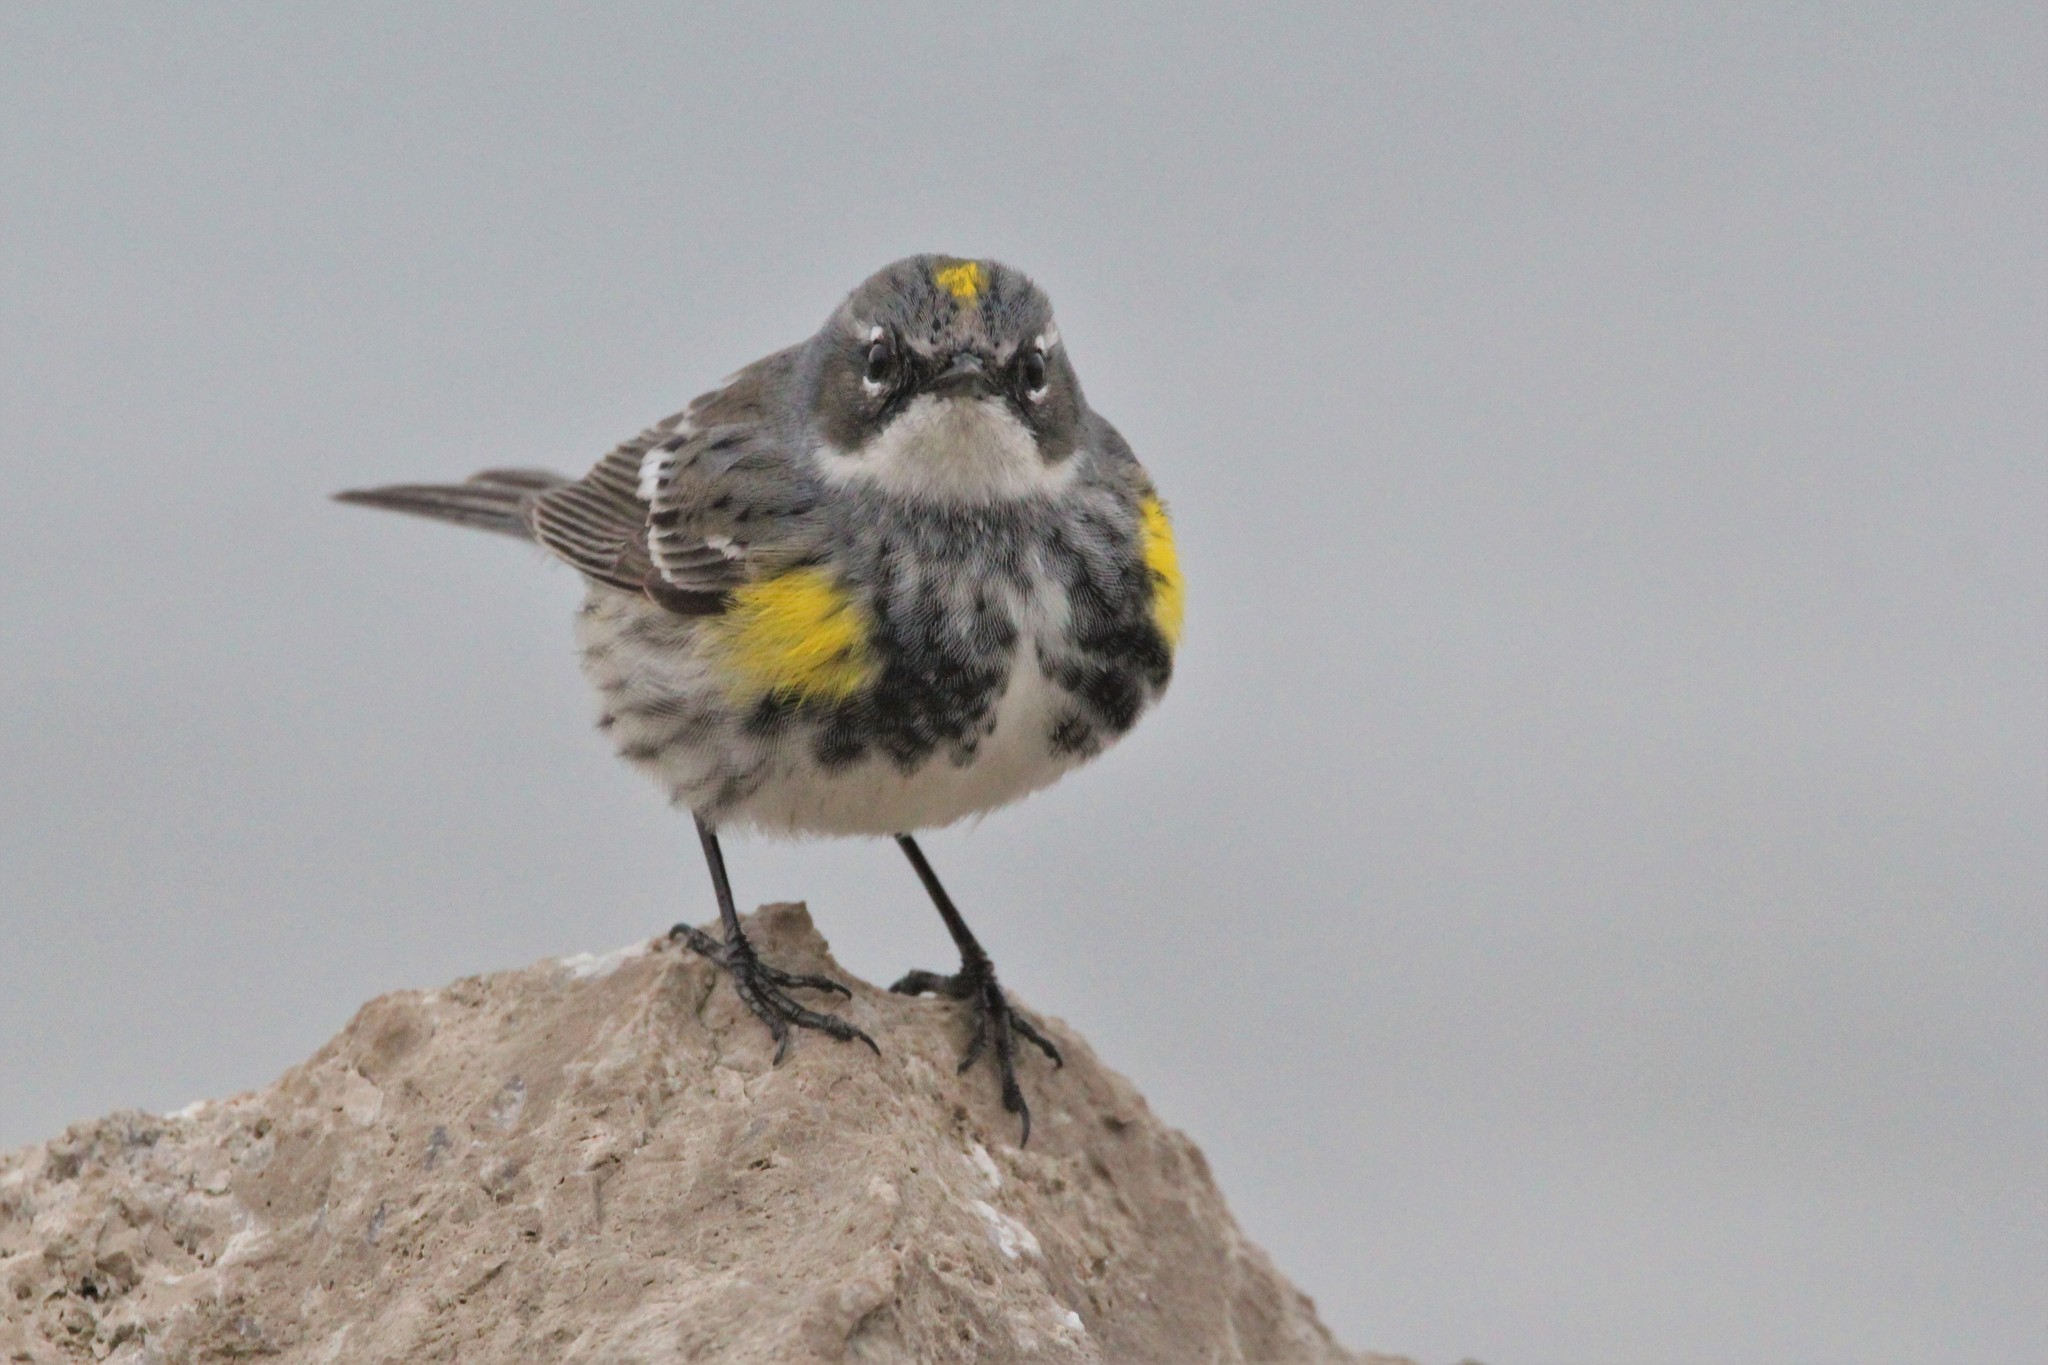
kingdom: Animalia
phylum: Chordata
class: Aves
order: Passeriformes
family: Parulidae
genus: Setophaga
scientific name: Setophaga coronata
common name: Myrtle warbler
